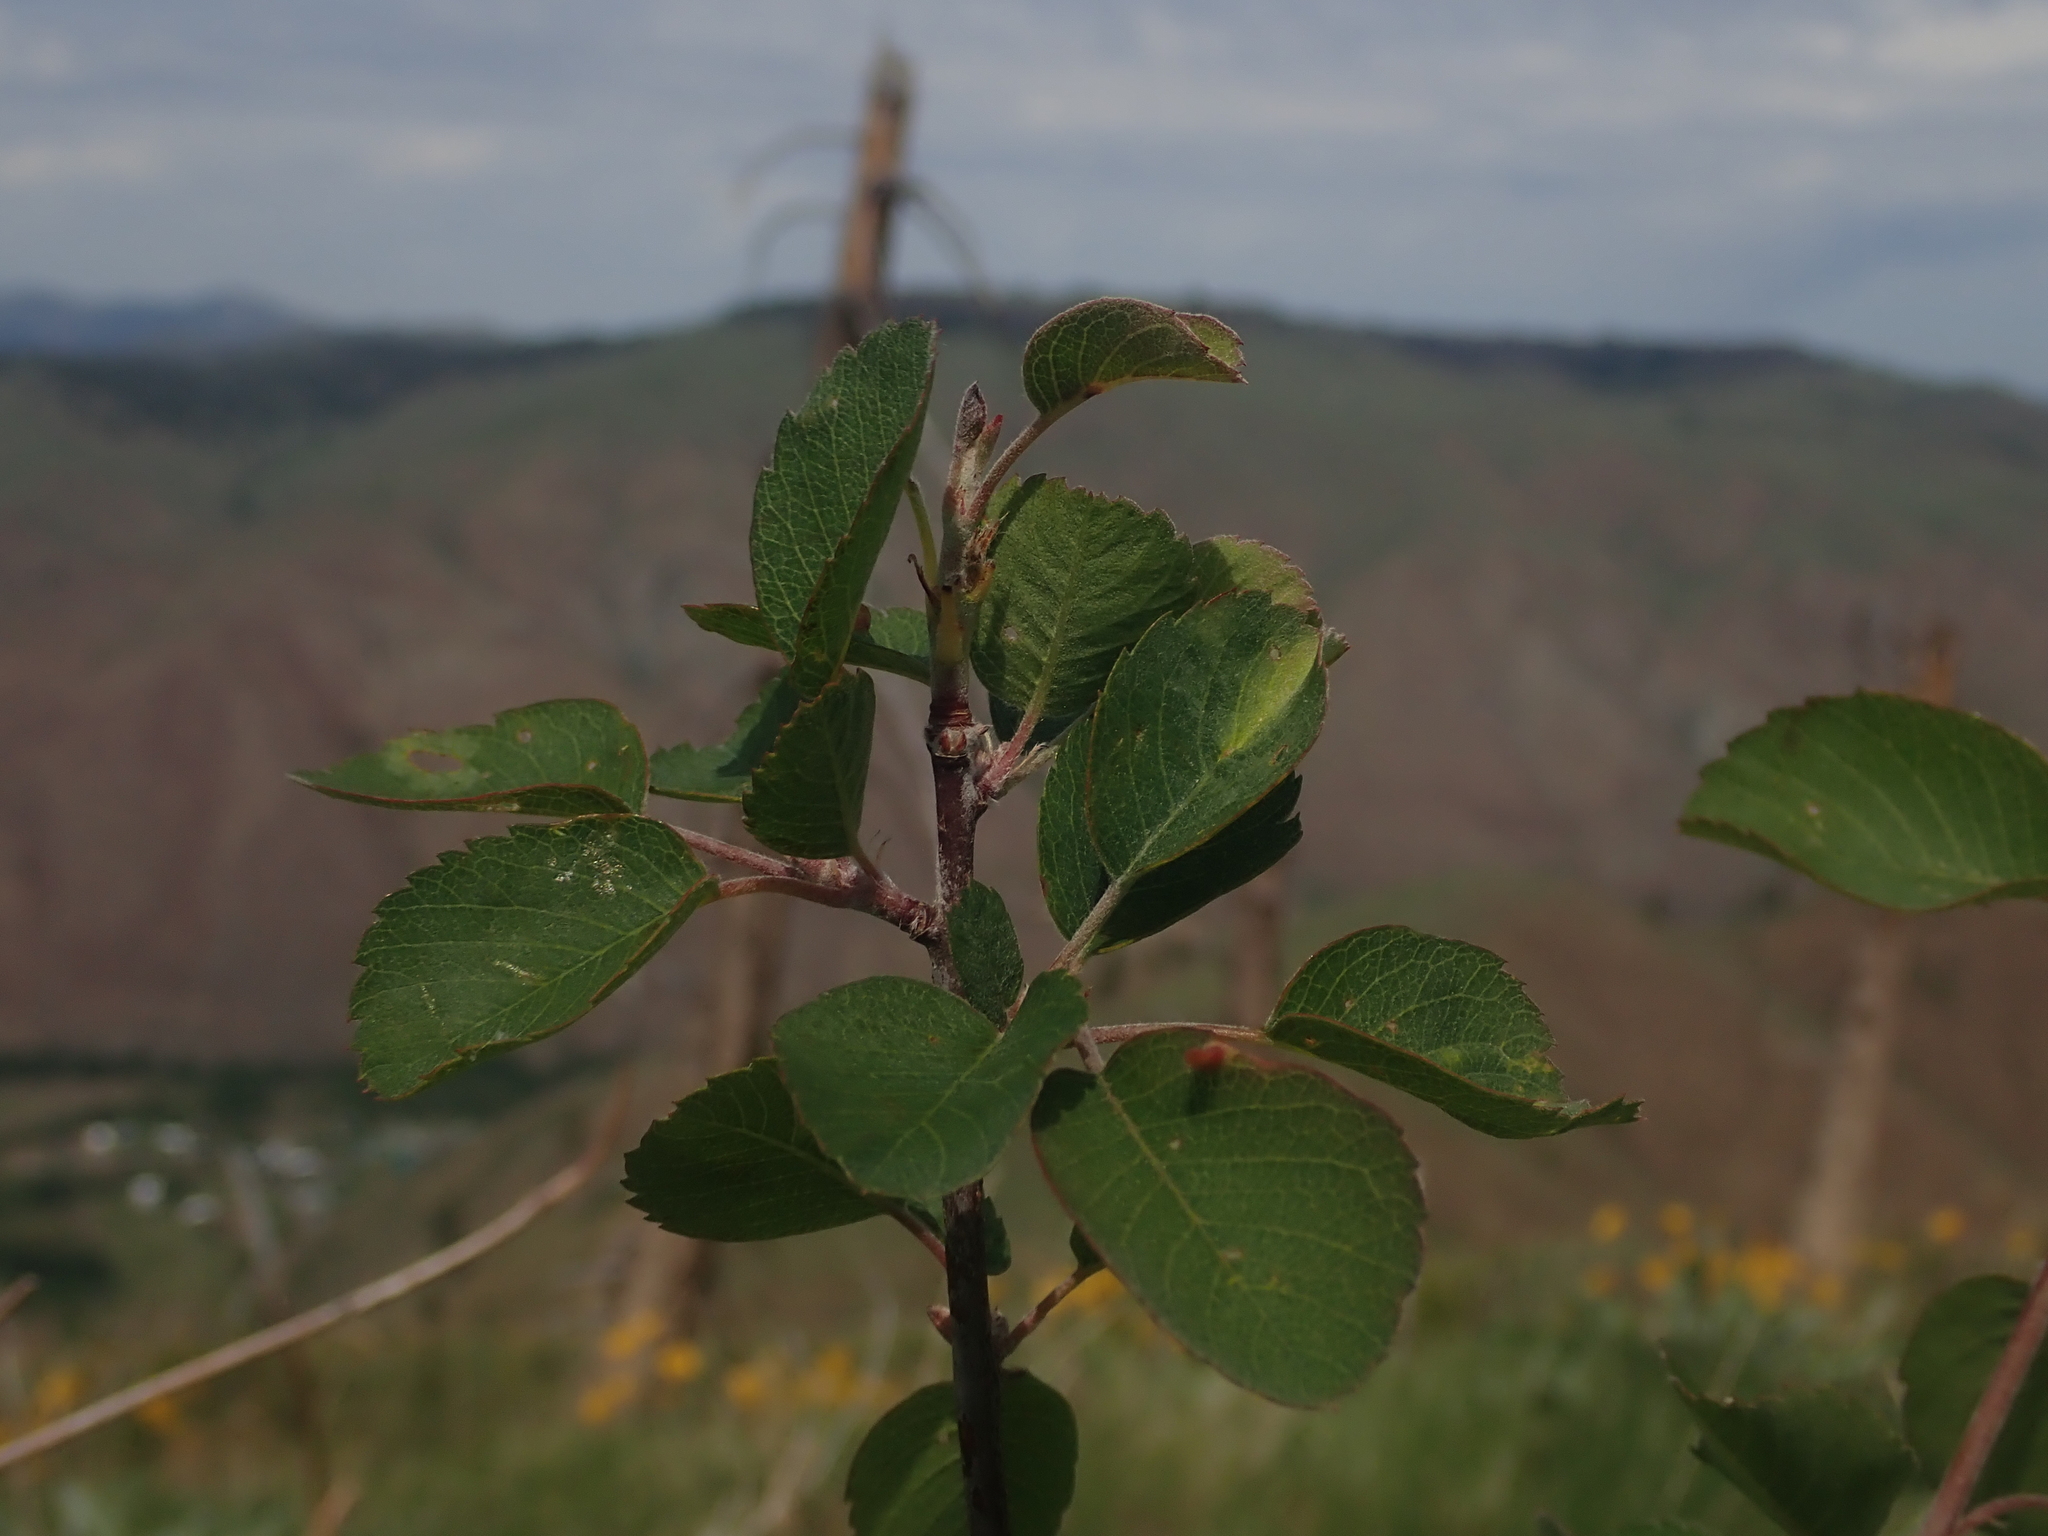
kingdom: Plantae
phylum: Tracheophyta
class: Magnoliopsida
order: Rosales
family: Rosaceae
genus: Amelanchier
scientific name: Amelanchier alnifolia
